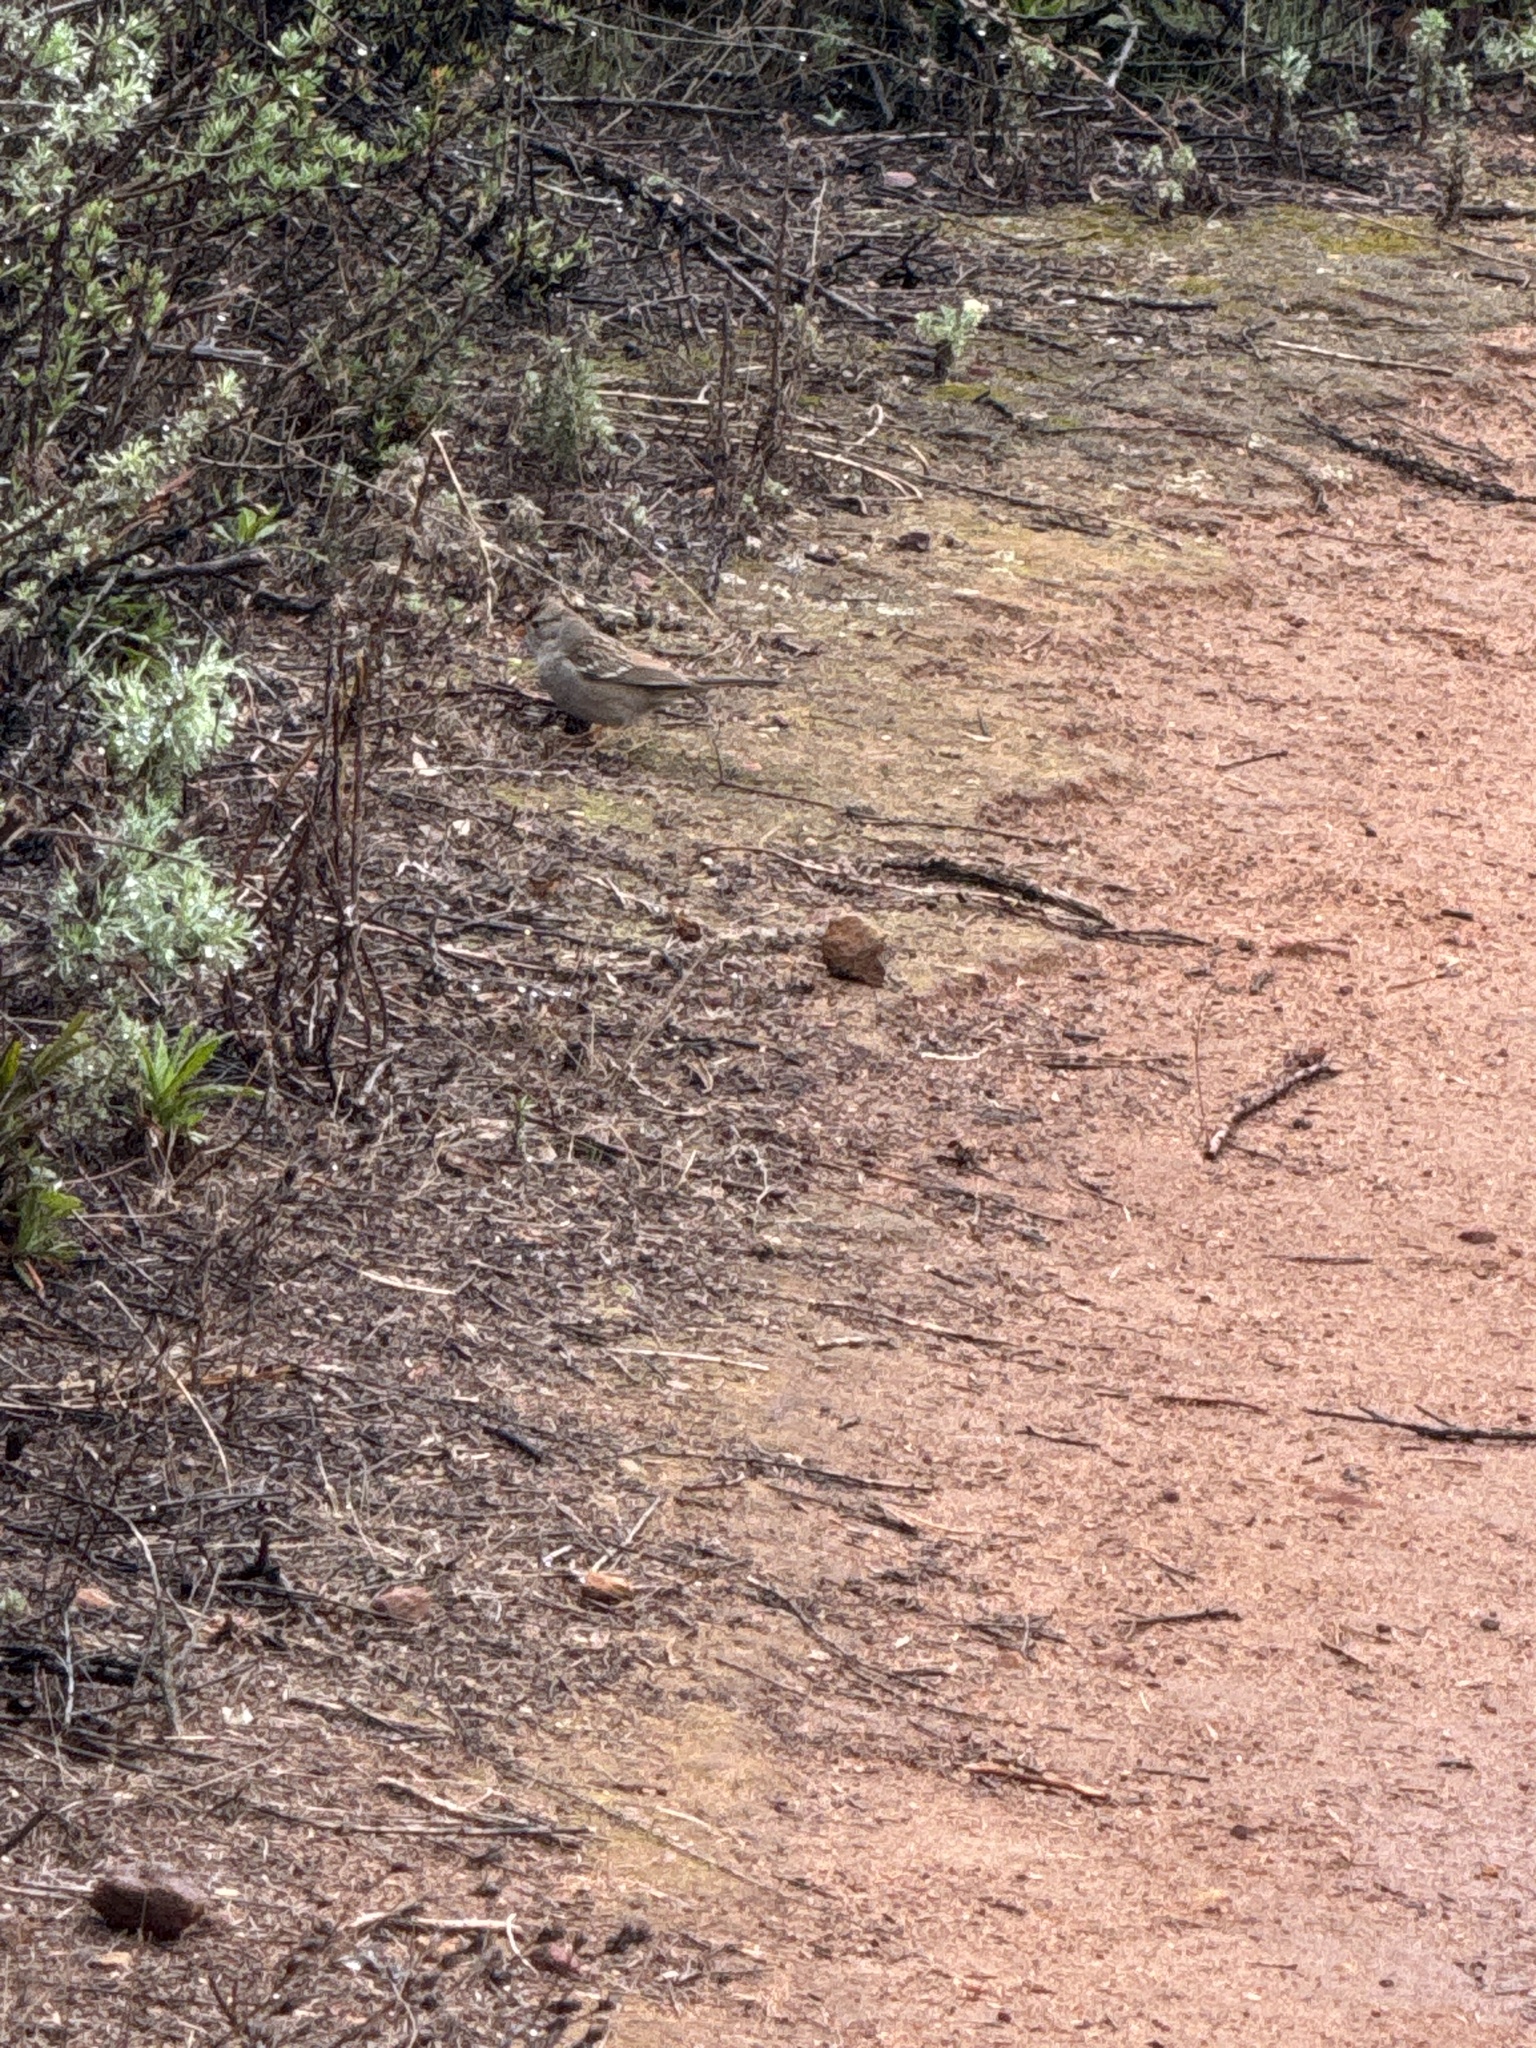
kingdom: Animalia
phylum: Chordata
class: Aves
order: Passeriformes
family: Passerellidae
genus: Zonotrichia
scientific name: Zonotrichia leucophrys
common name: White-crowned sparrow
